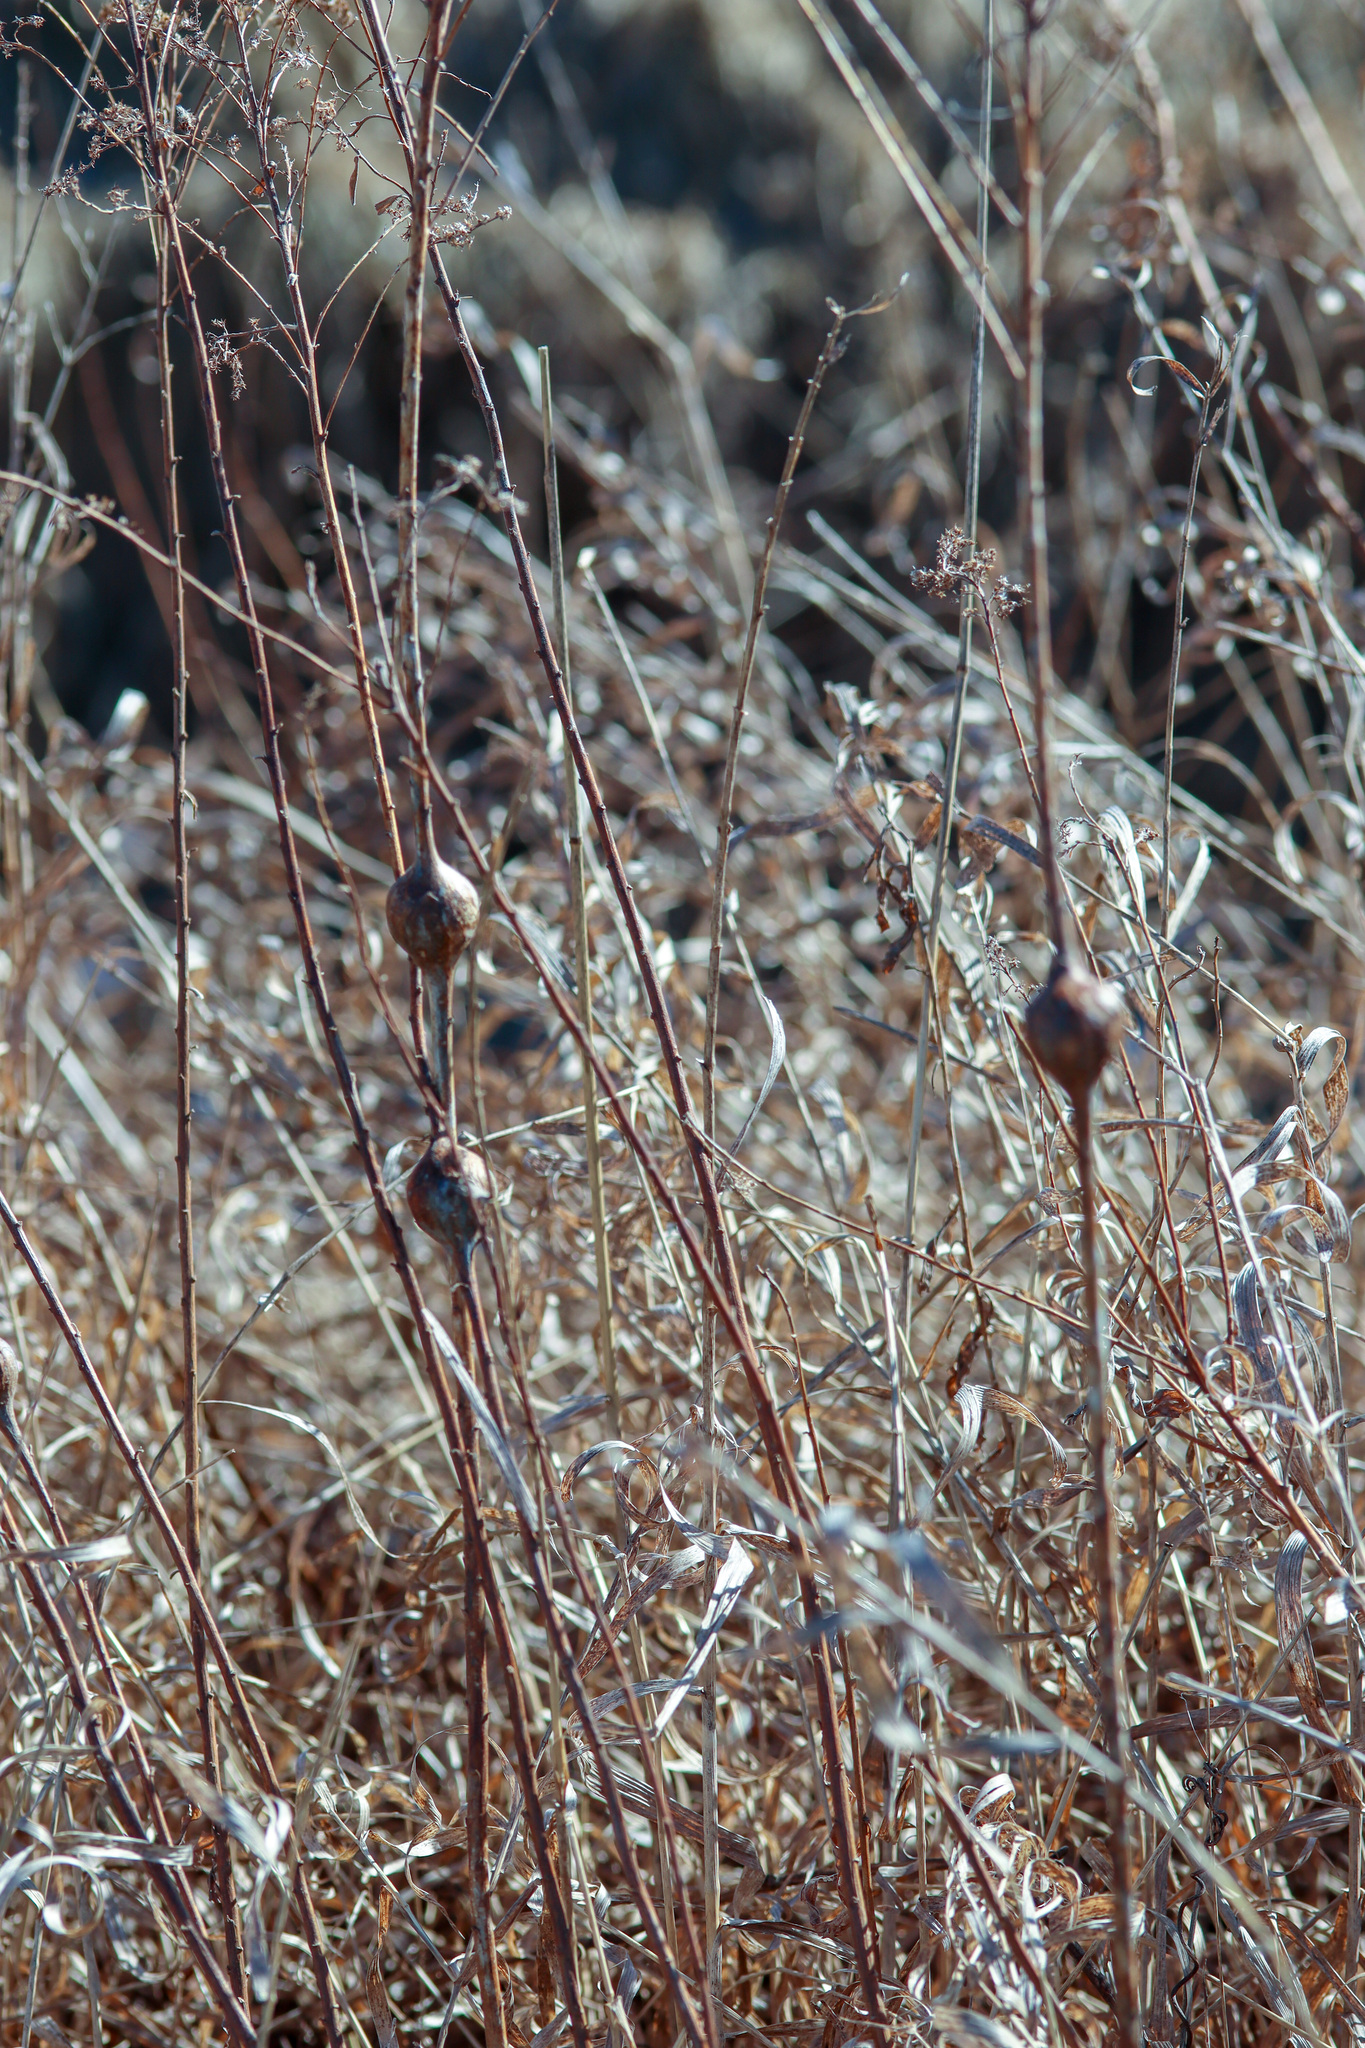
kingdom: Animalia
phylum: Arthropoda
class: Insecta
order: Diptera
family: Tephritidae
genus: Eurosta
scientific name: Eurosta solidaginis
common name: Goldenrod gall fly
